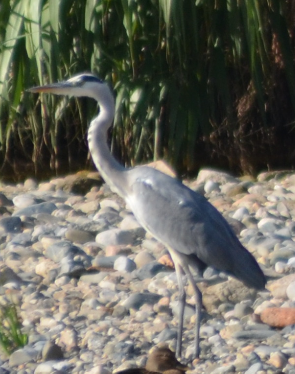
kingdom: Animalia
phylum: Chordata
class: Aves
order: Pelecaniformes
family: Ardeidae
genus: Ardea
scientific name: Ardea cinerea
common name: Grey heron
